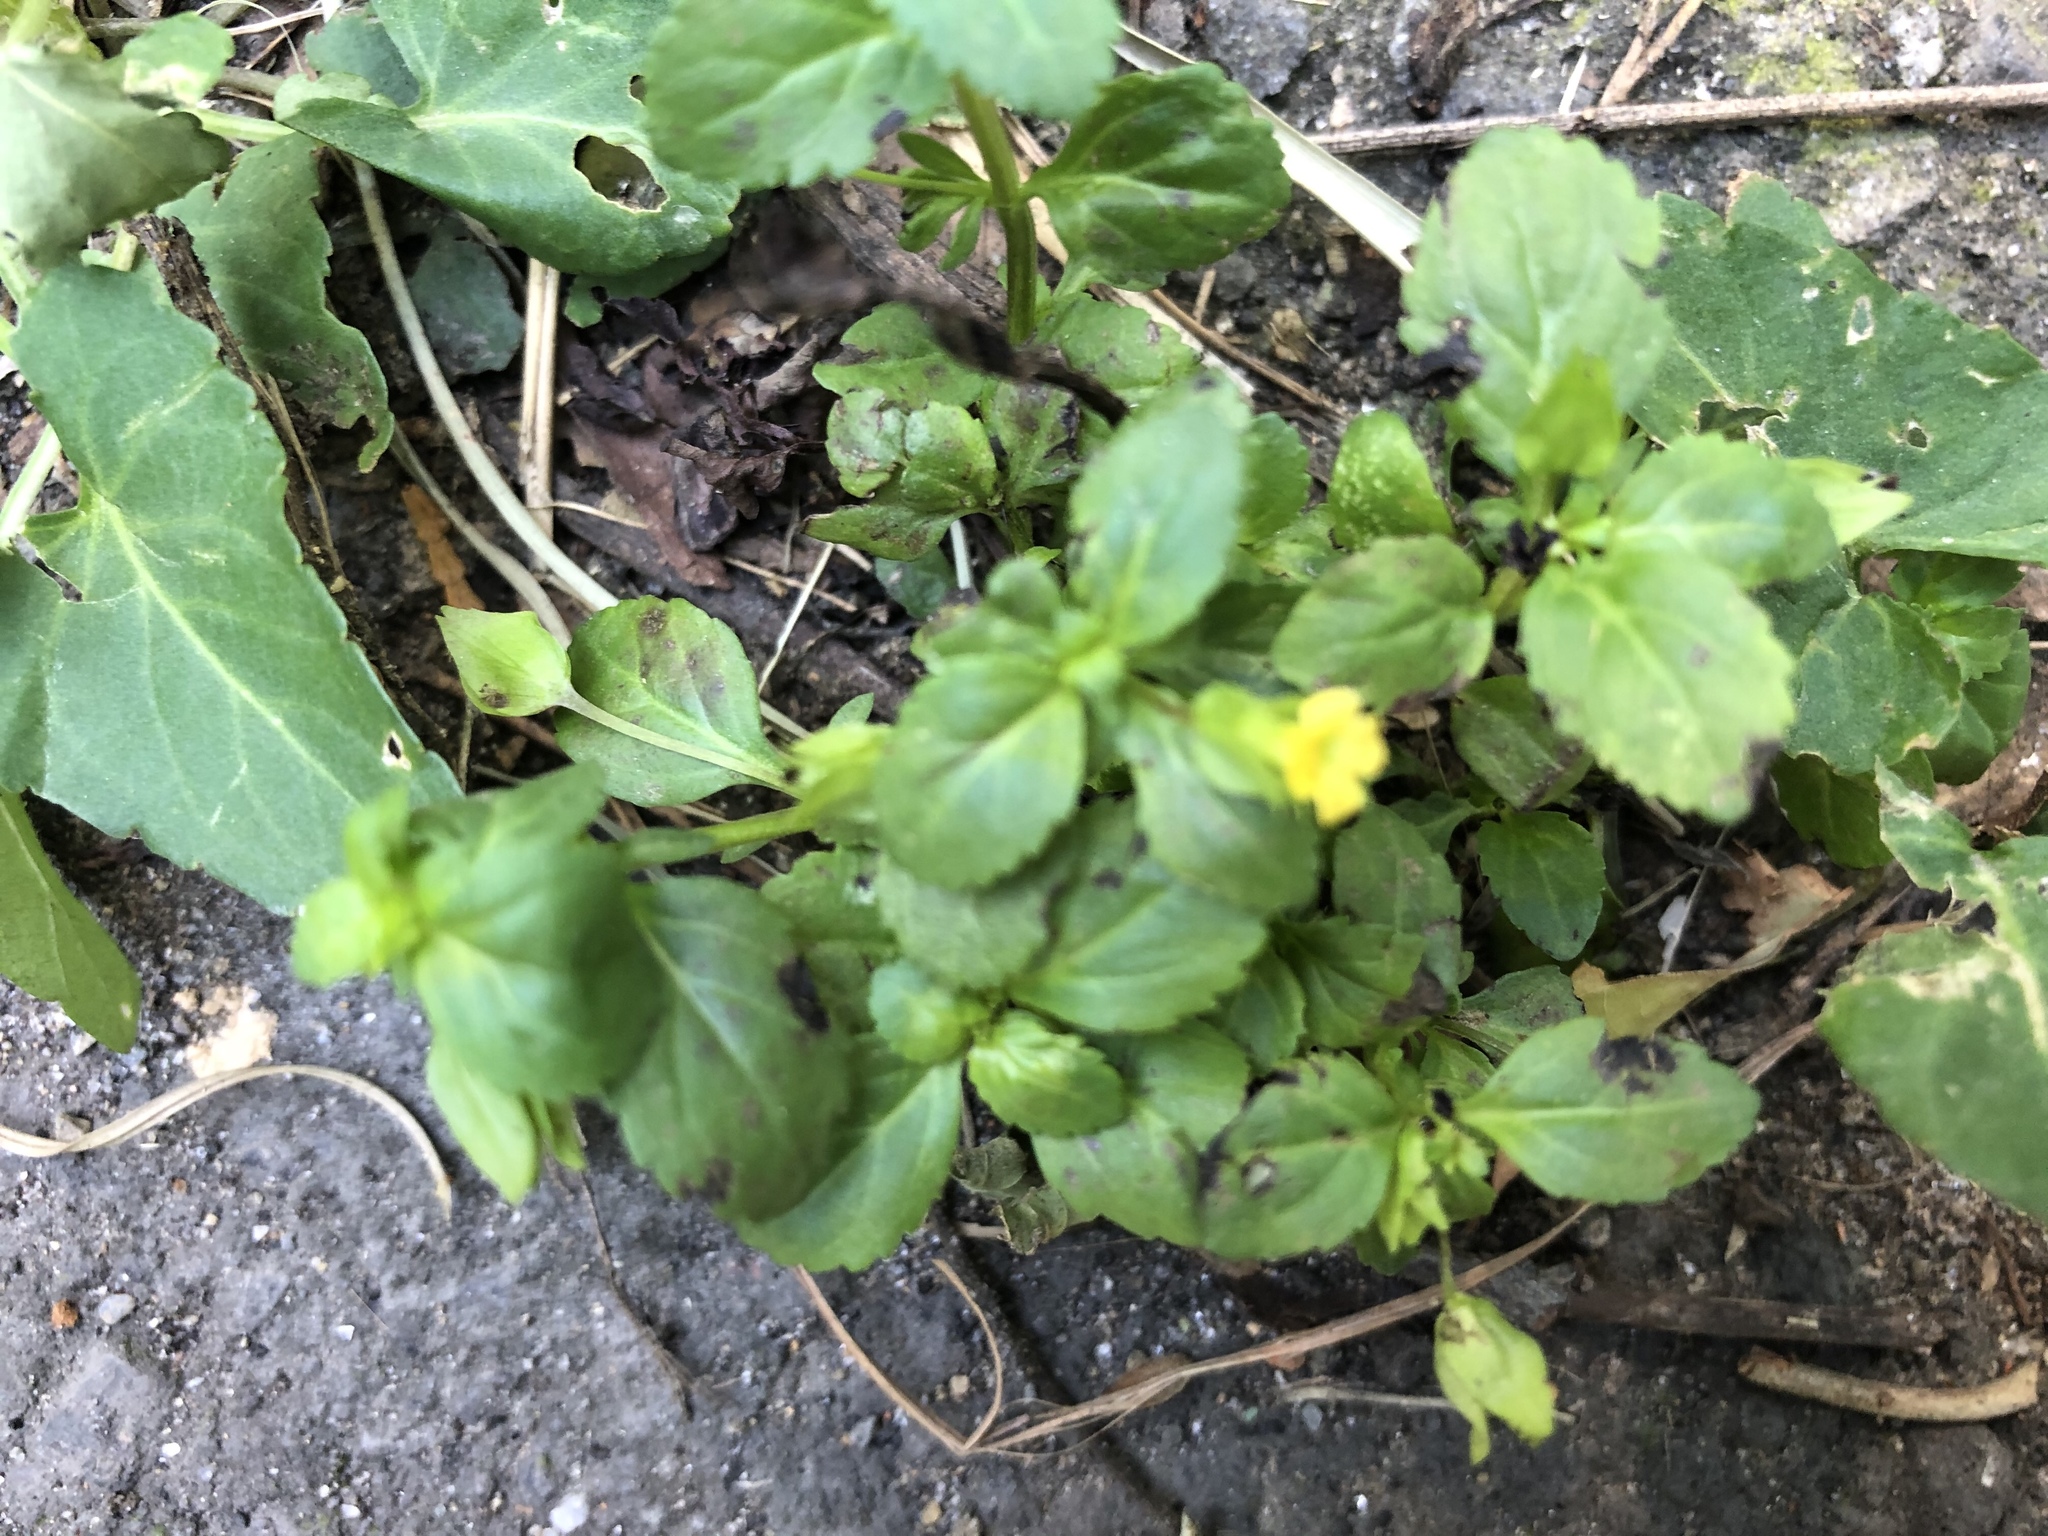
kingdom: Plantae
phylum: Tracheophyta
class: Magnoliopsida
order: Lamiales
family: Plantaginaceae
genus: Mecardonia
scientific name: Mecardonia procumbens
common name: Baby jump-up
